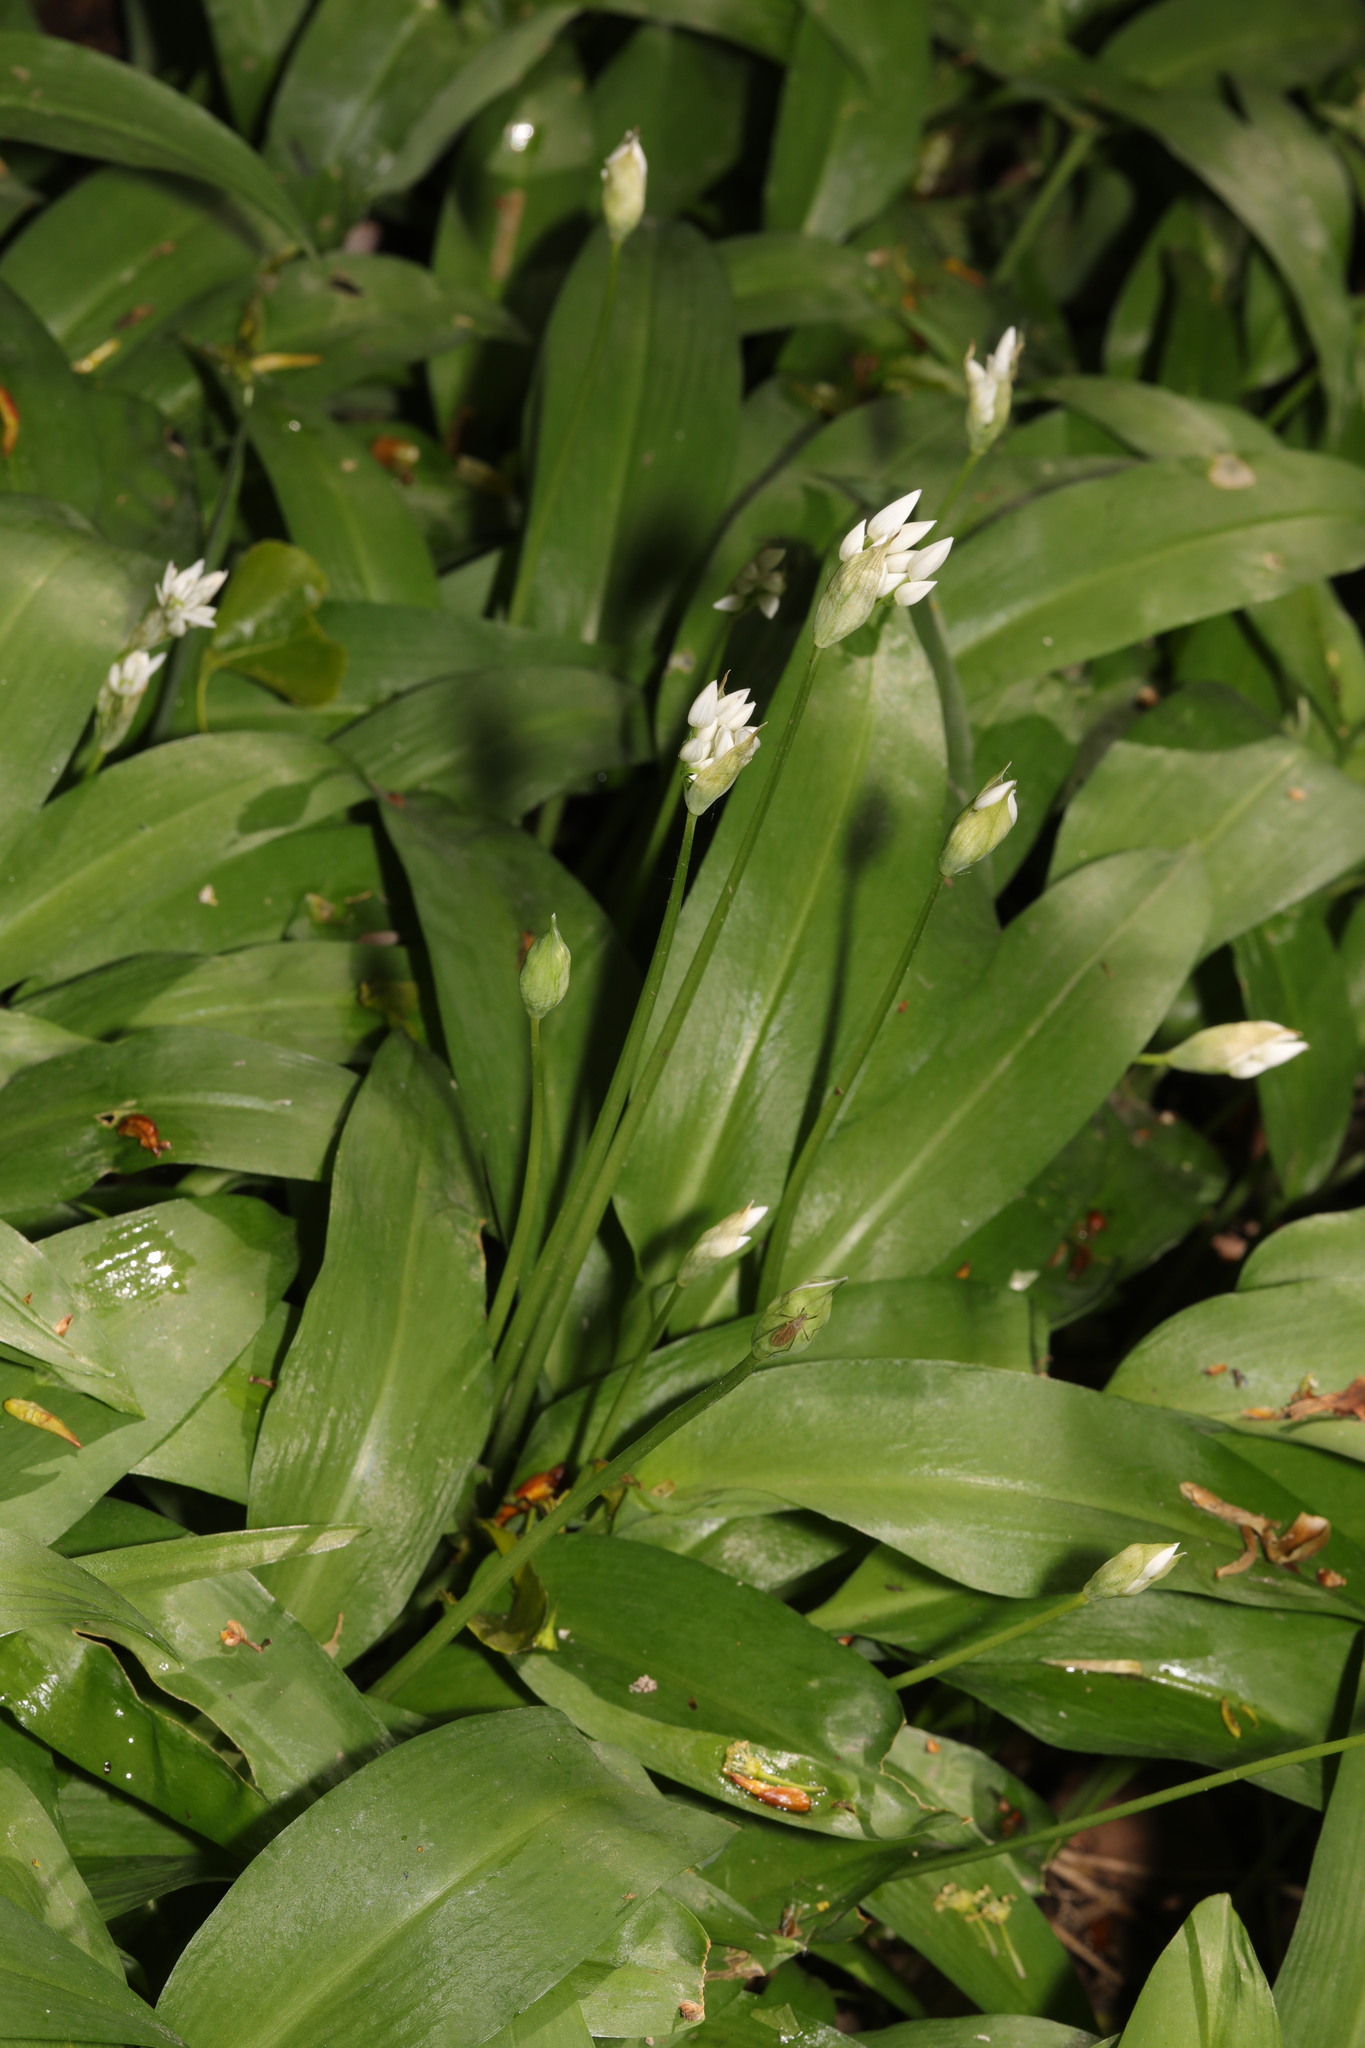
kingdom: Plantae
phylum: Tracheophyta
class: Liliopsida
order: Asparagales
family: Amaryllidaceae
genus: Allium
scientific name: Allium ursinum
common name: Ramsons
